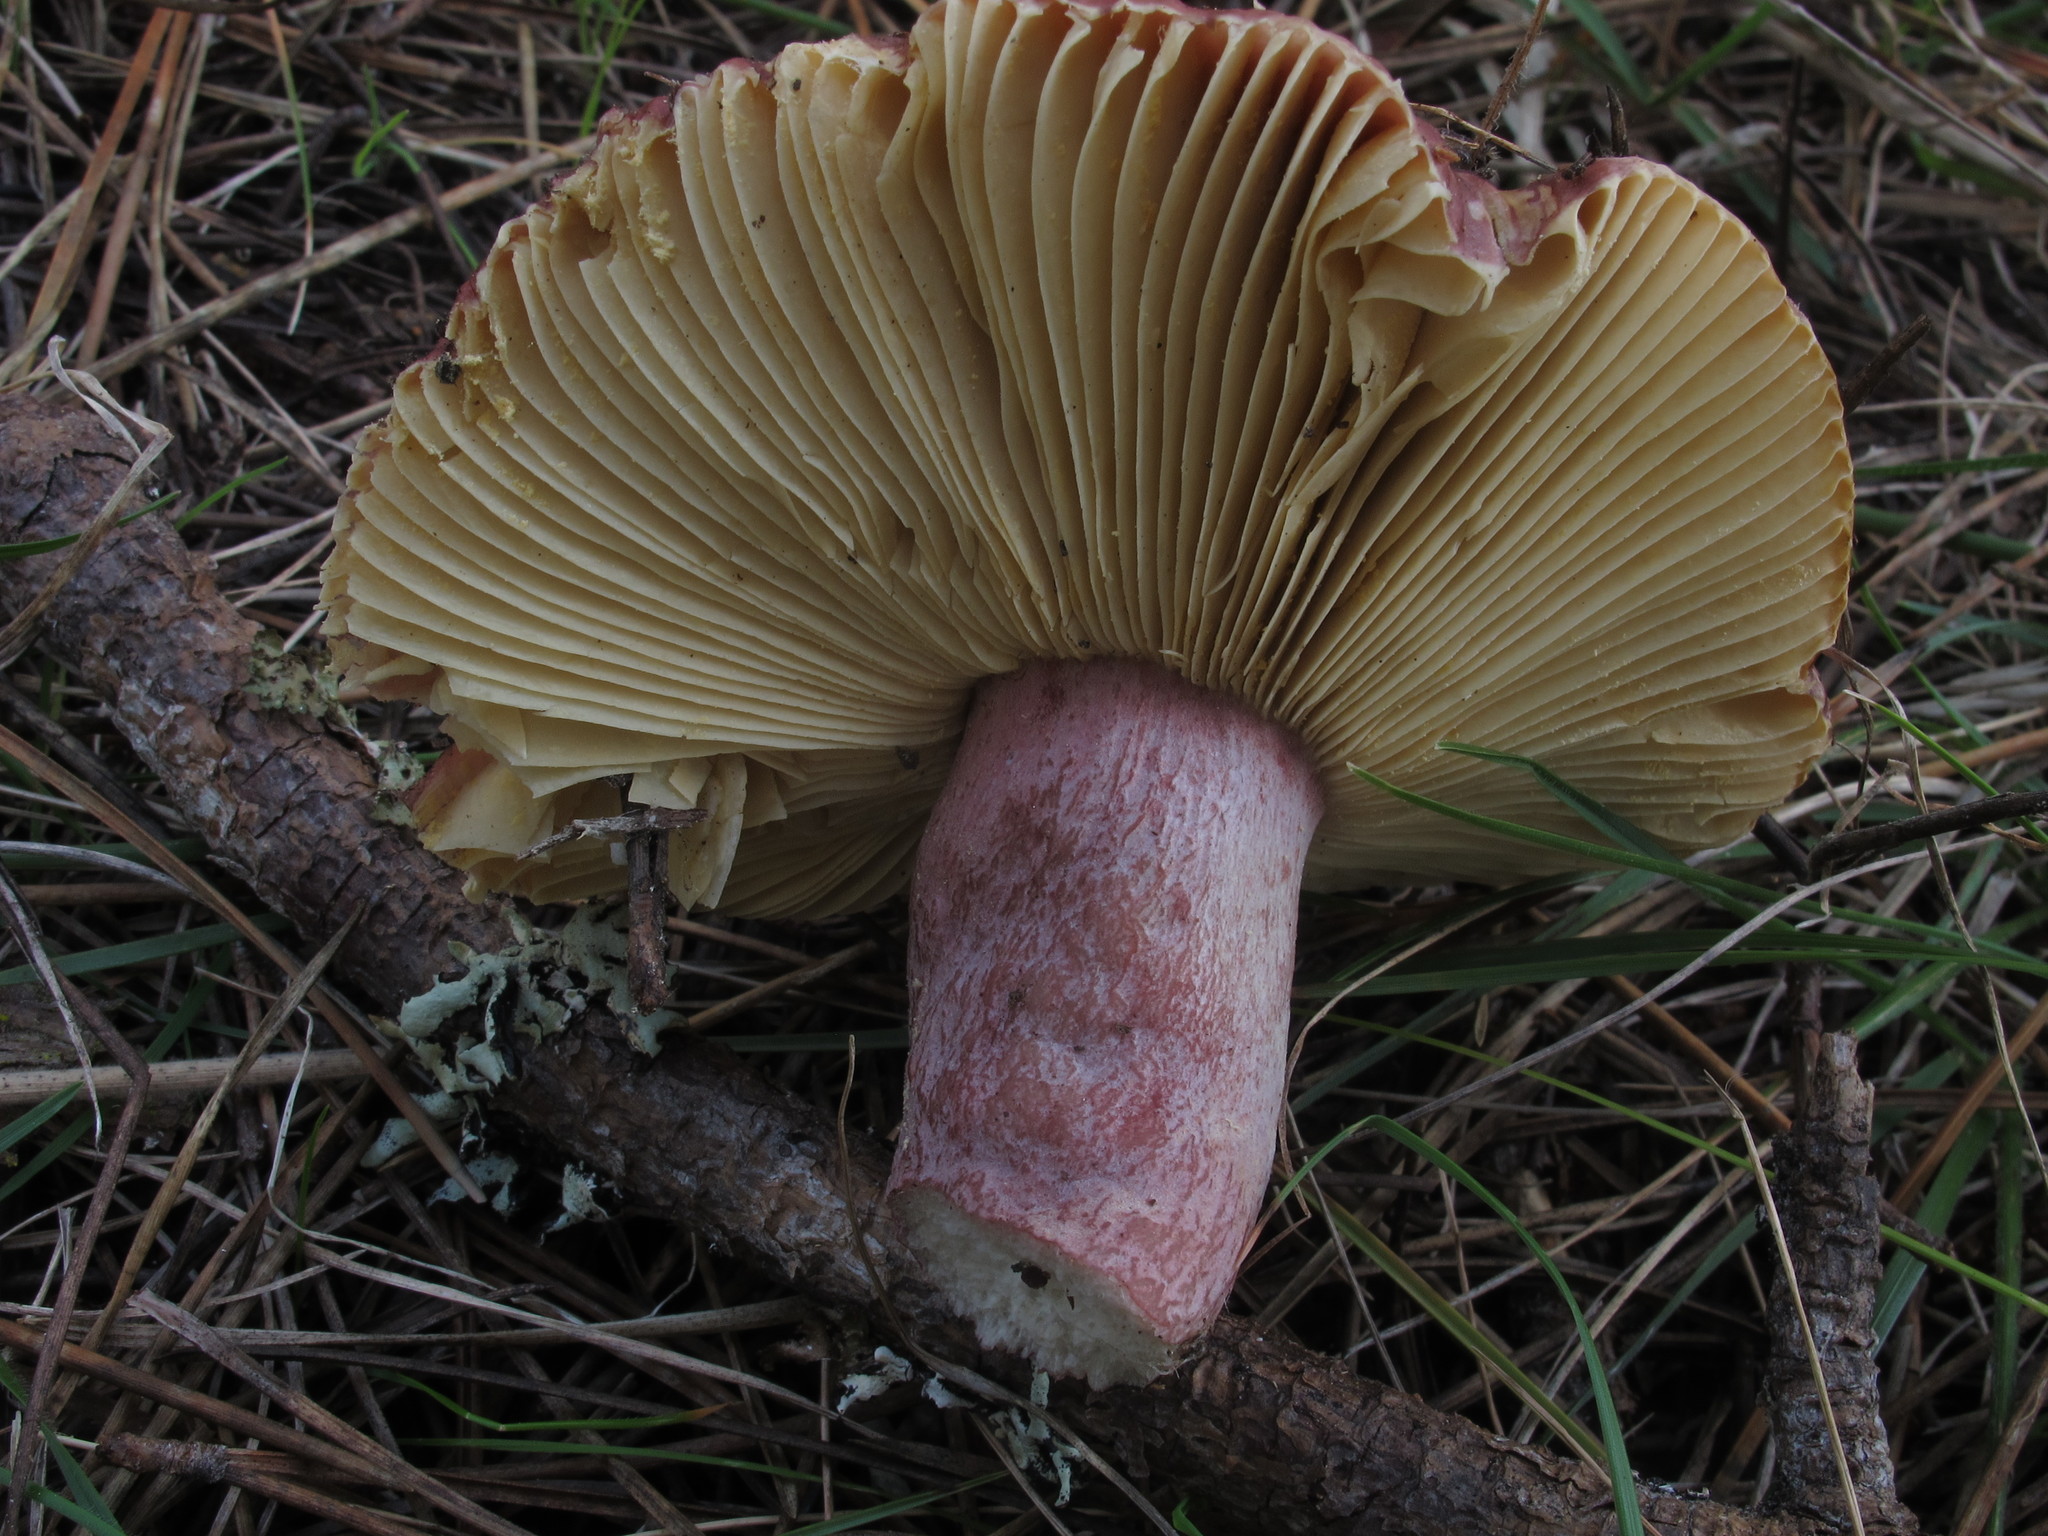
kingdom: Fungi
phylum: Basidiomycota
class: Agaricomycetes
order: Russulales
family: Russulaceae
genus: Russula
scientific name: Russula olivacea
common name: Olive brittlegill
